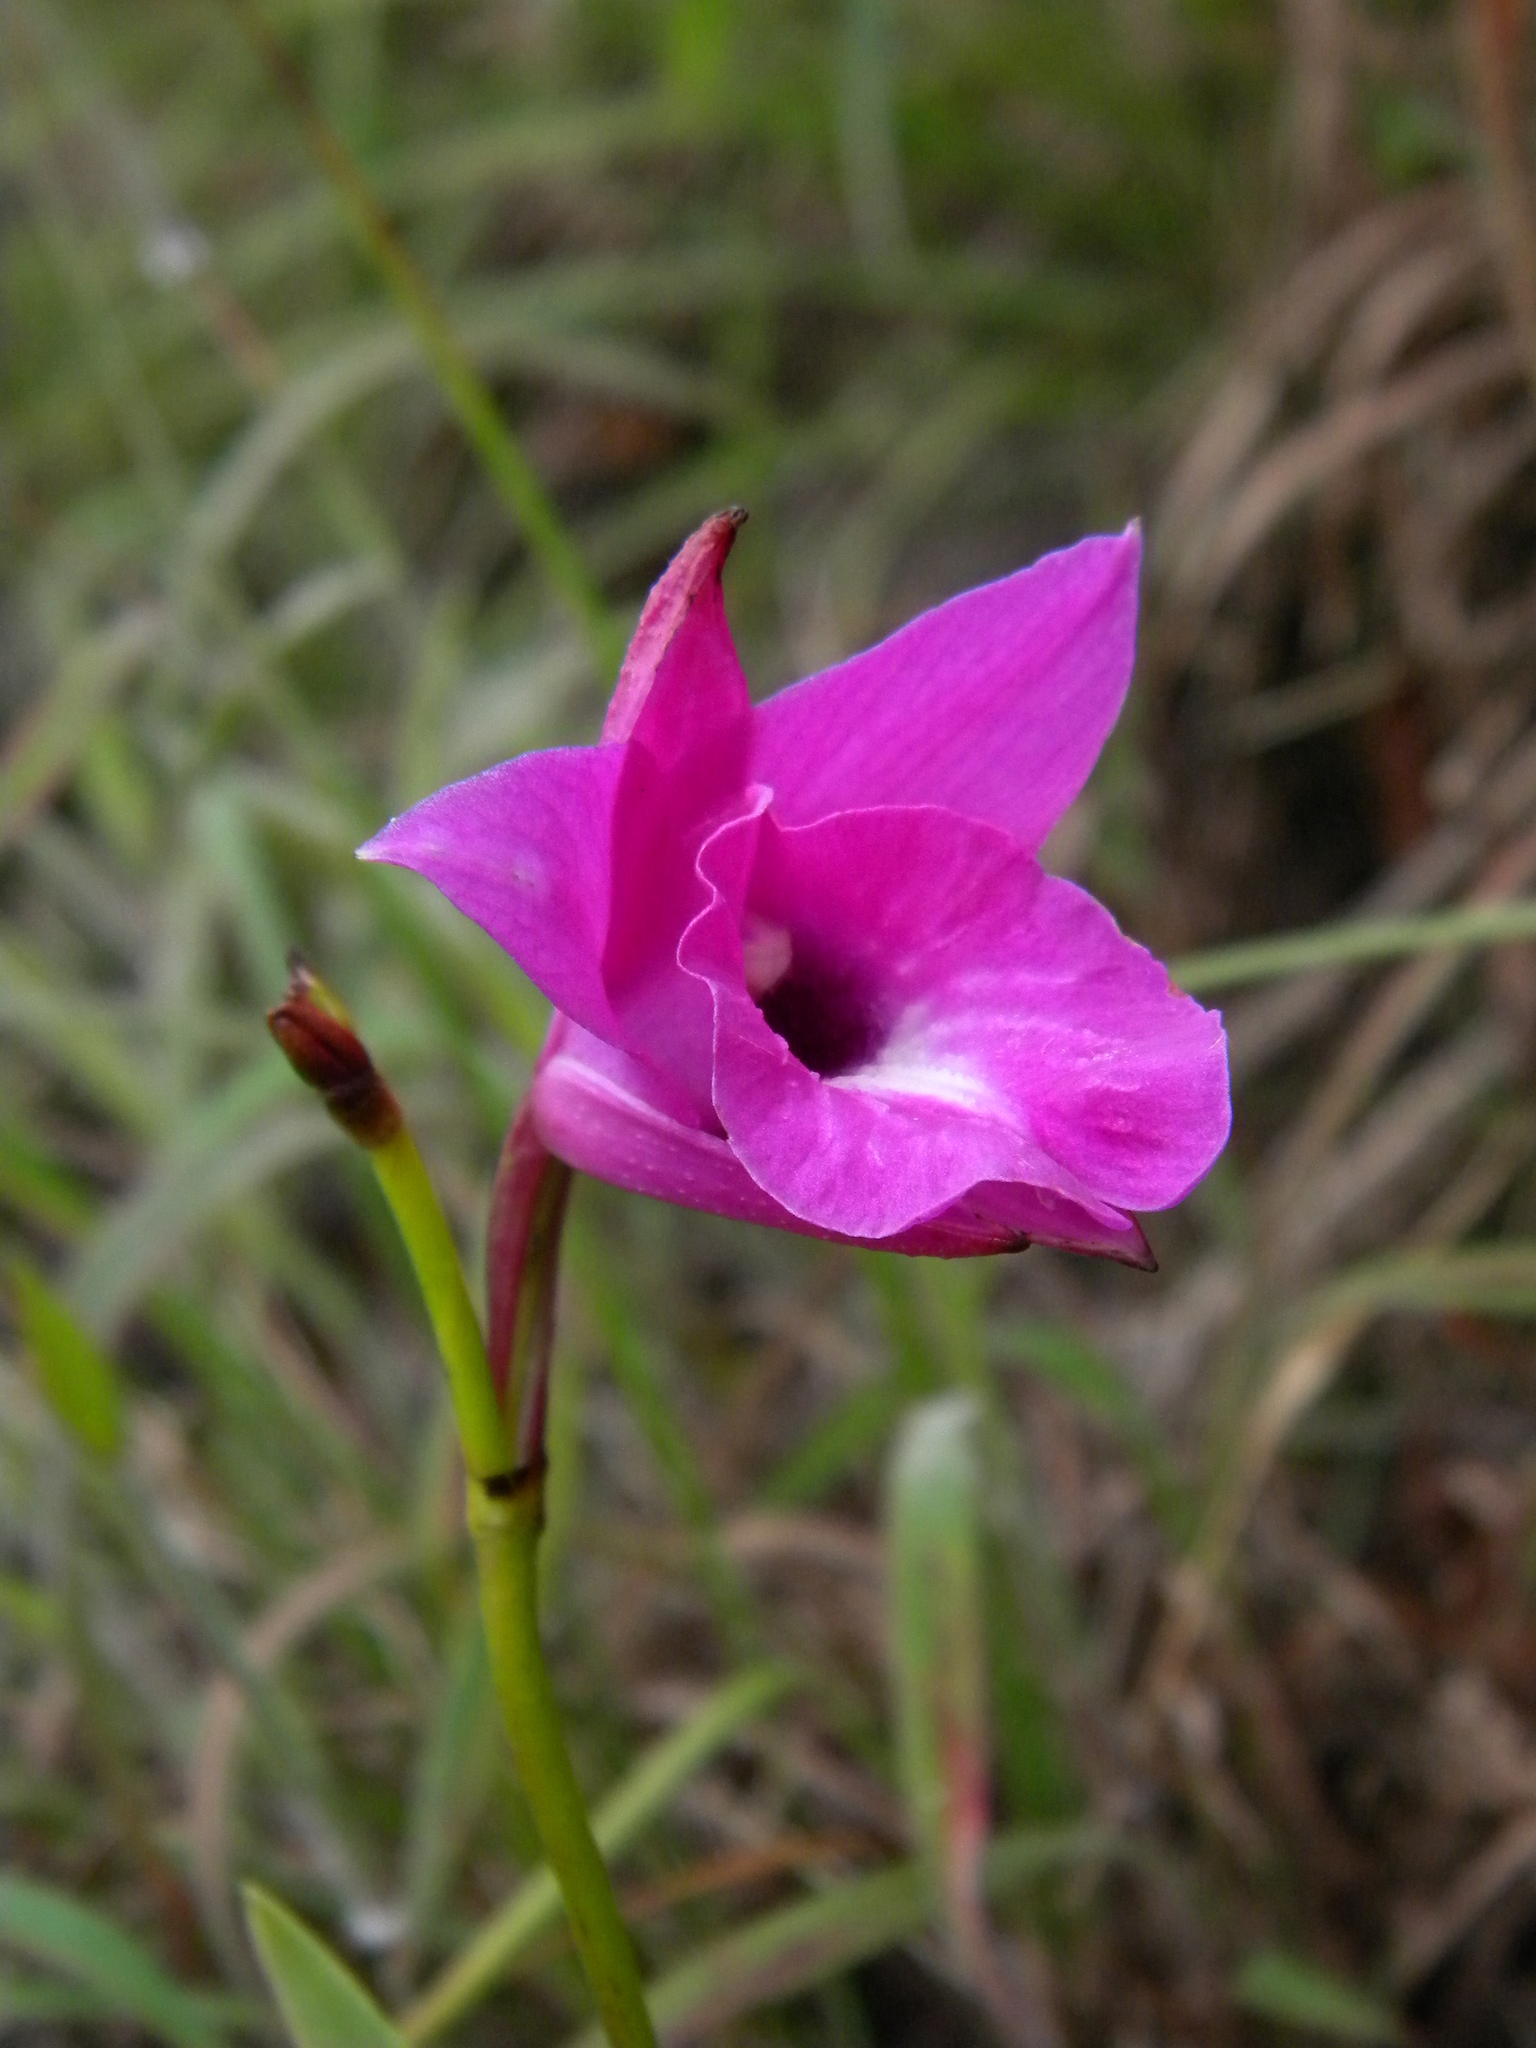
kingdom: Plantae
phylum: Tracheophyta
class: Liliopsida
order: Asparagales
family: Orchidaceae
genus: Arundina
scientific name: Arundina graminifolia
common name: Bamboo orchid
